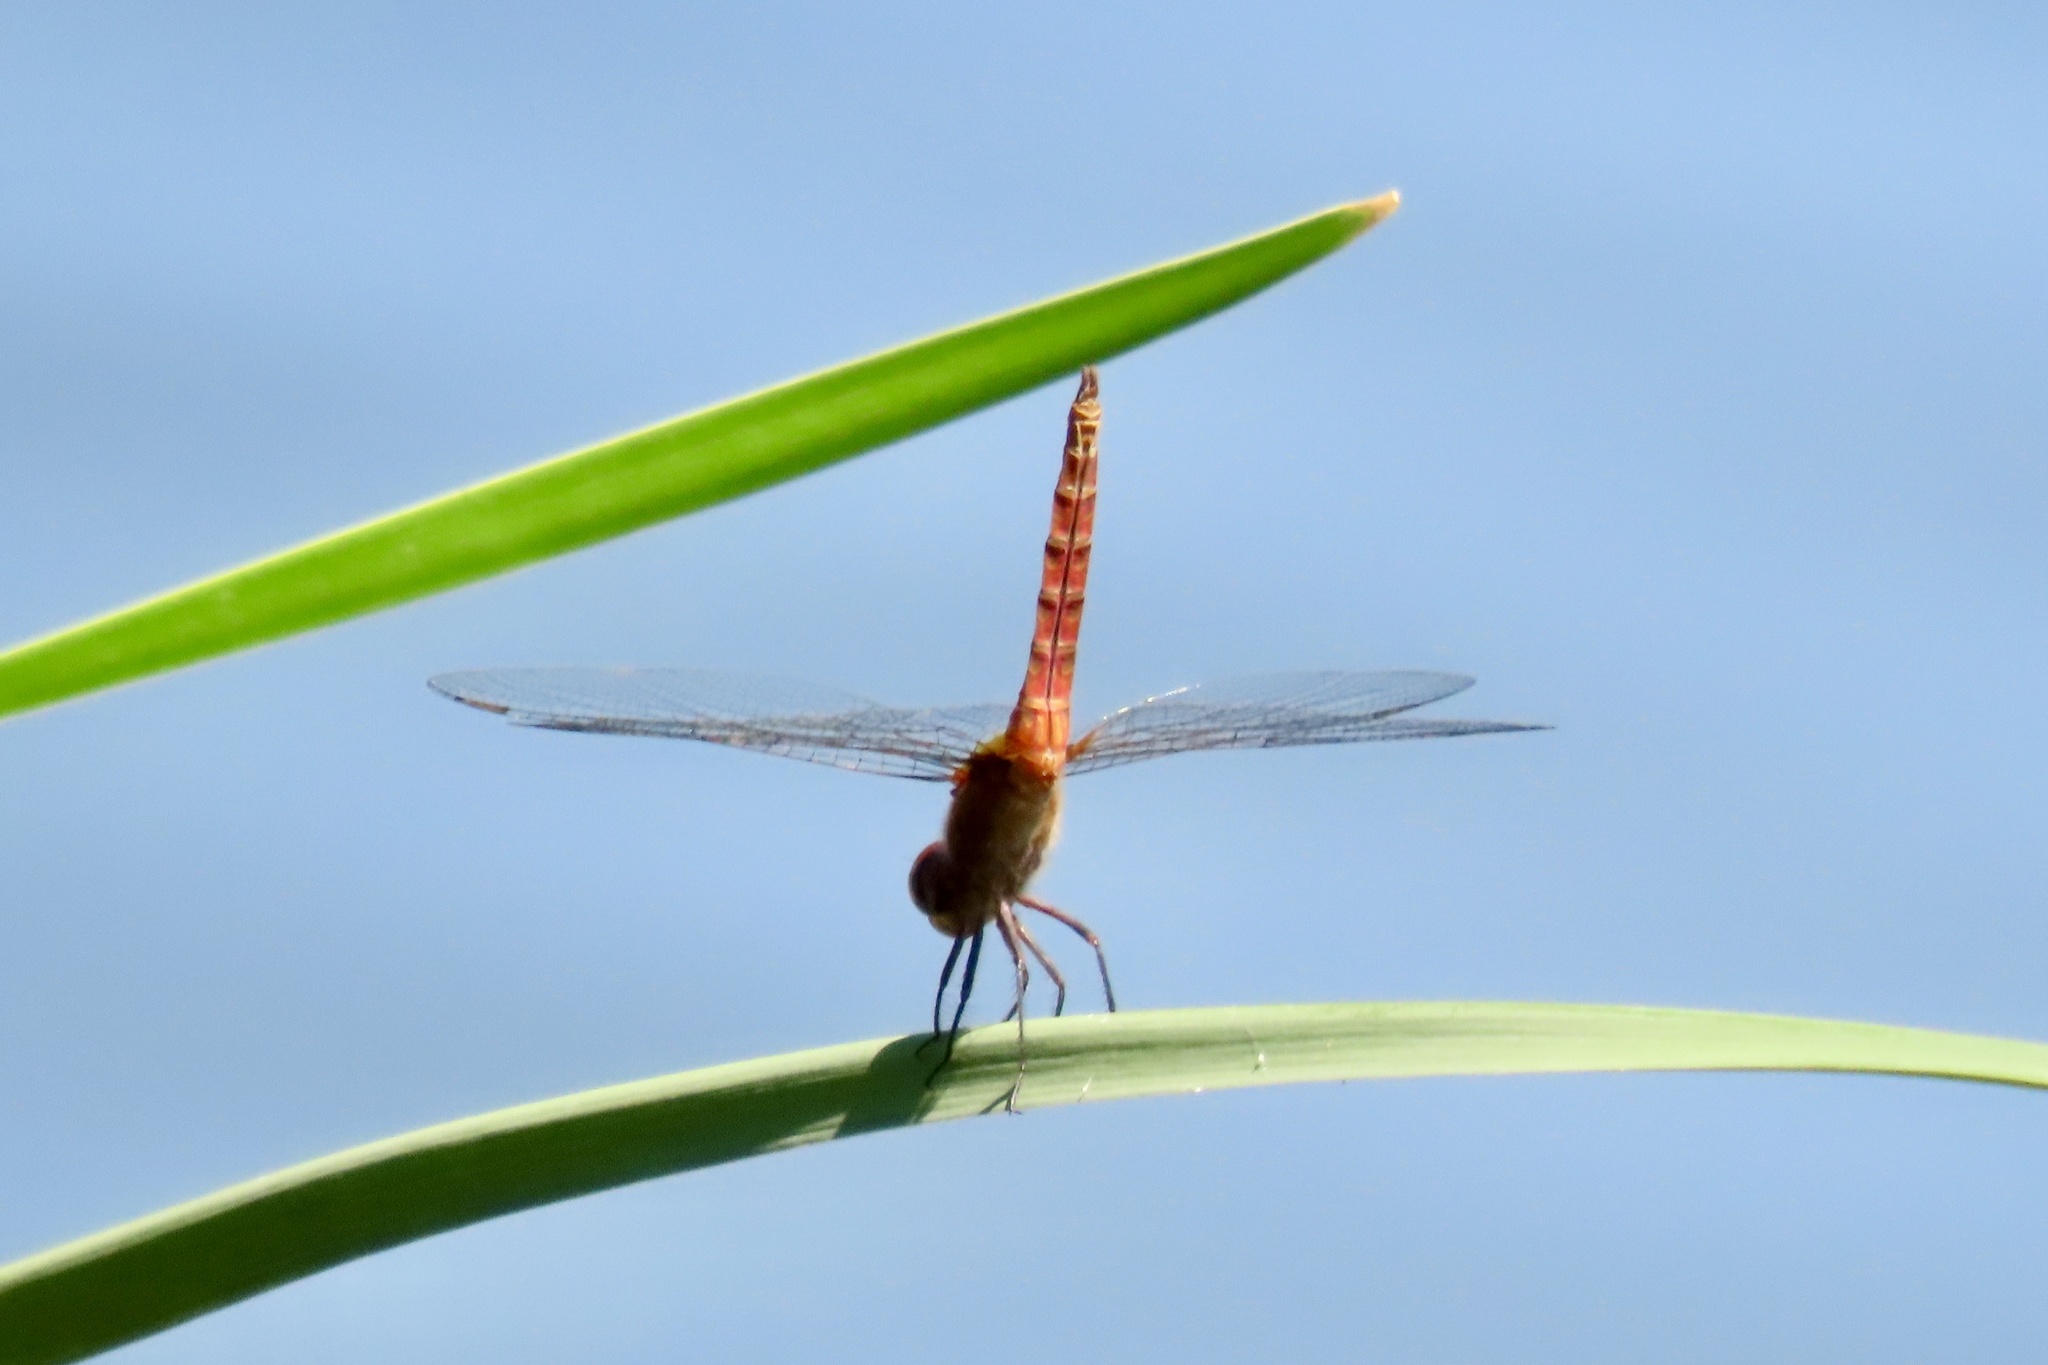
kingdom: Animalia
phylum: Arthropoda
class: Insecta
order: Odonata
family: Libellulidae
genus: Brachymesia
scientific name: Brachymesia furcata
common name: Red-taled pennant
